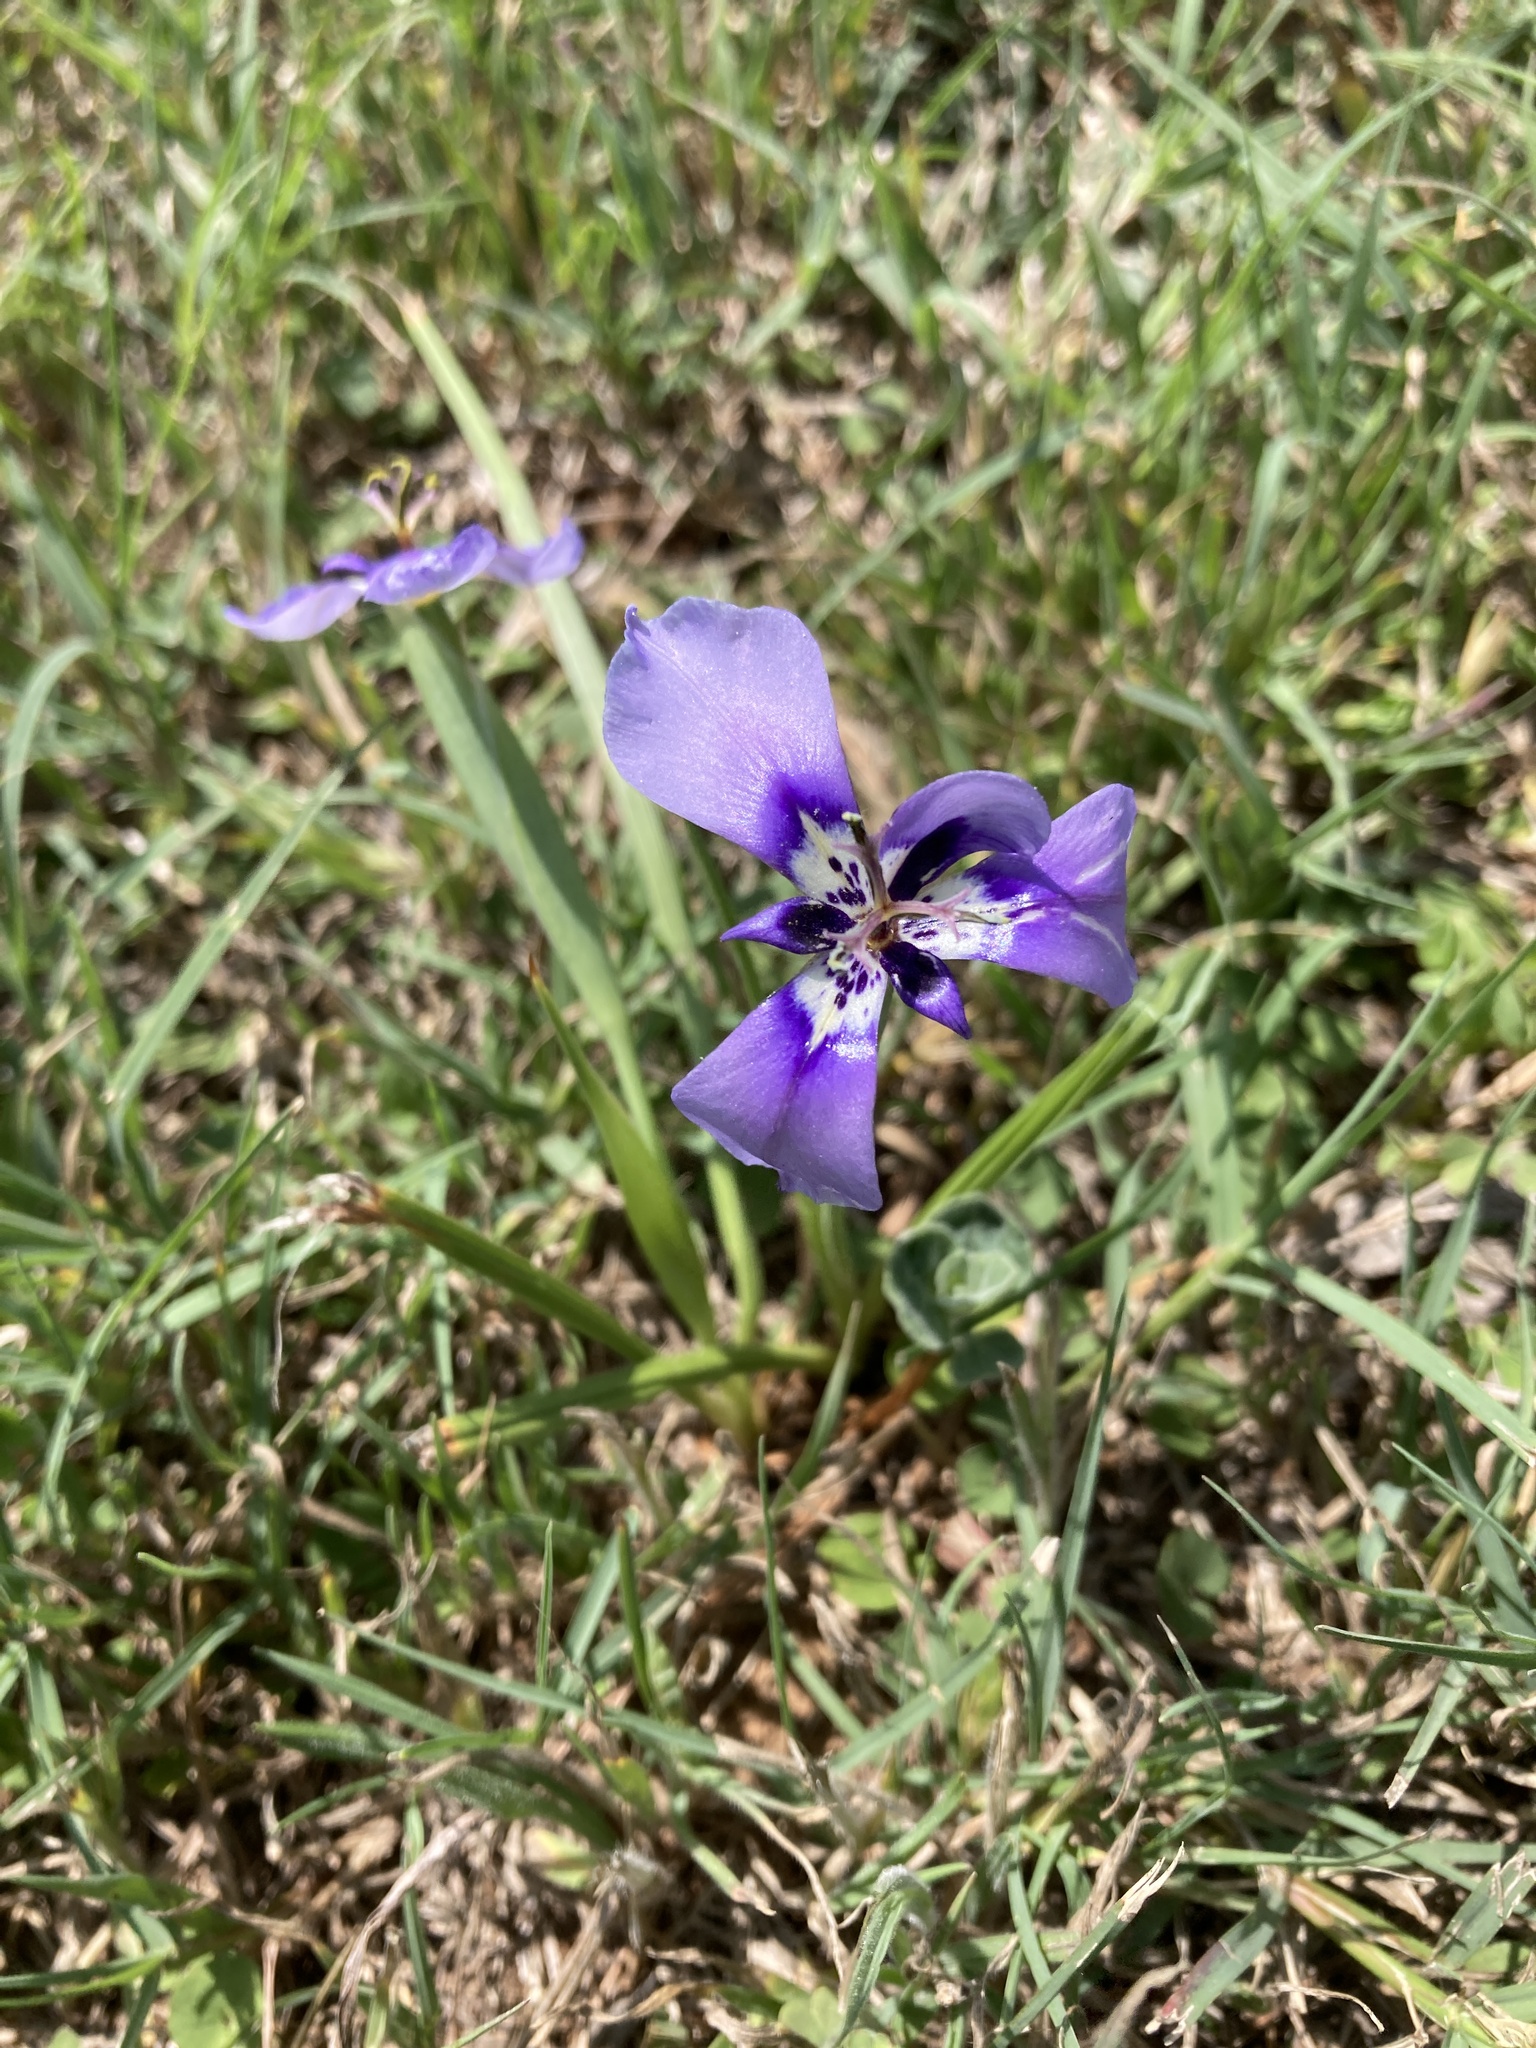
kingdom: Plantae
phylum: Tracheophyta
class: Liliopsida
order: Asparagales
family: Iridaceae
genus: Herbertia
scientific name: Herbertia lahue
